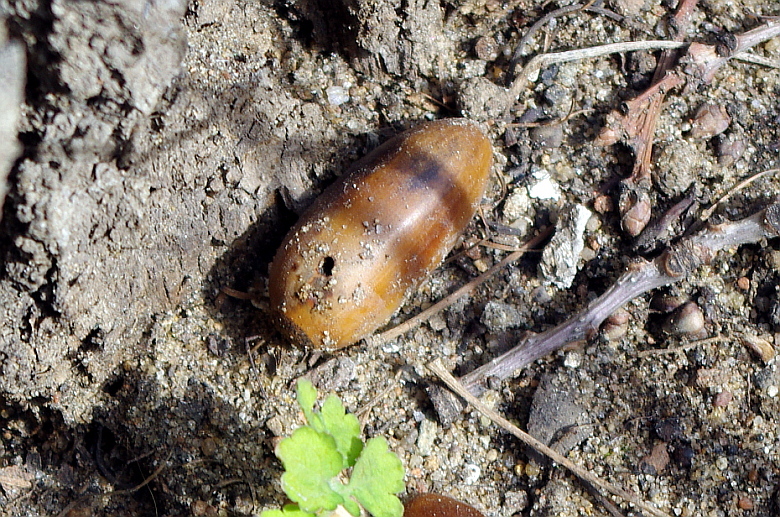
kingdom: Animalia
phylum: Arthropoda
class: Insecta
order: Coleoptera
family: Curculionidae
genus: Curculio
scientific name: Curculio glandium
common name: Acorn weevil
